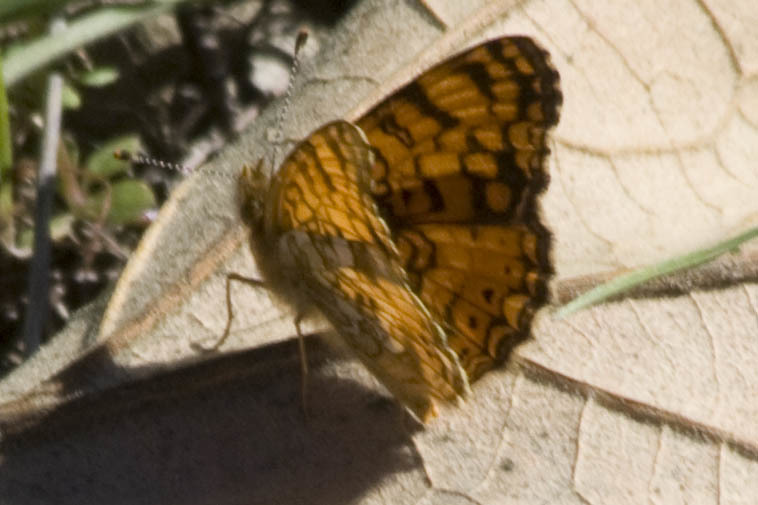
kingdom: Animalia
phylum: Arthropoda
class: Insecta
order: Lepidoptera
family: Nymphalidae
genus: Eresia
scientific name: Eresia aveyrona
